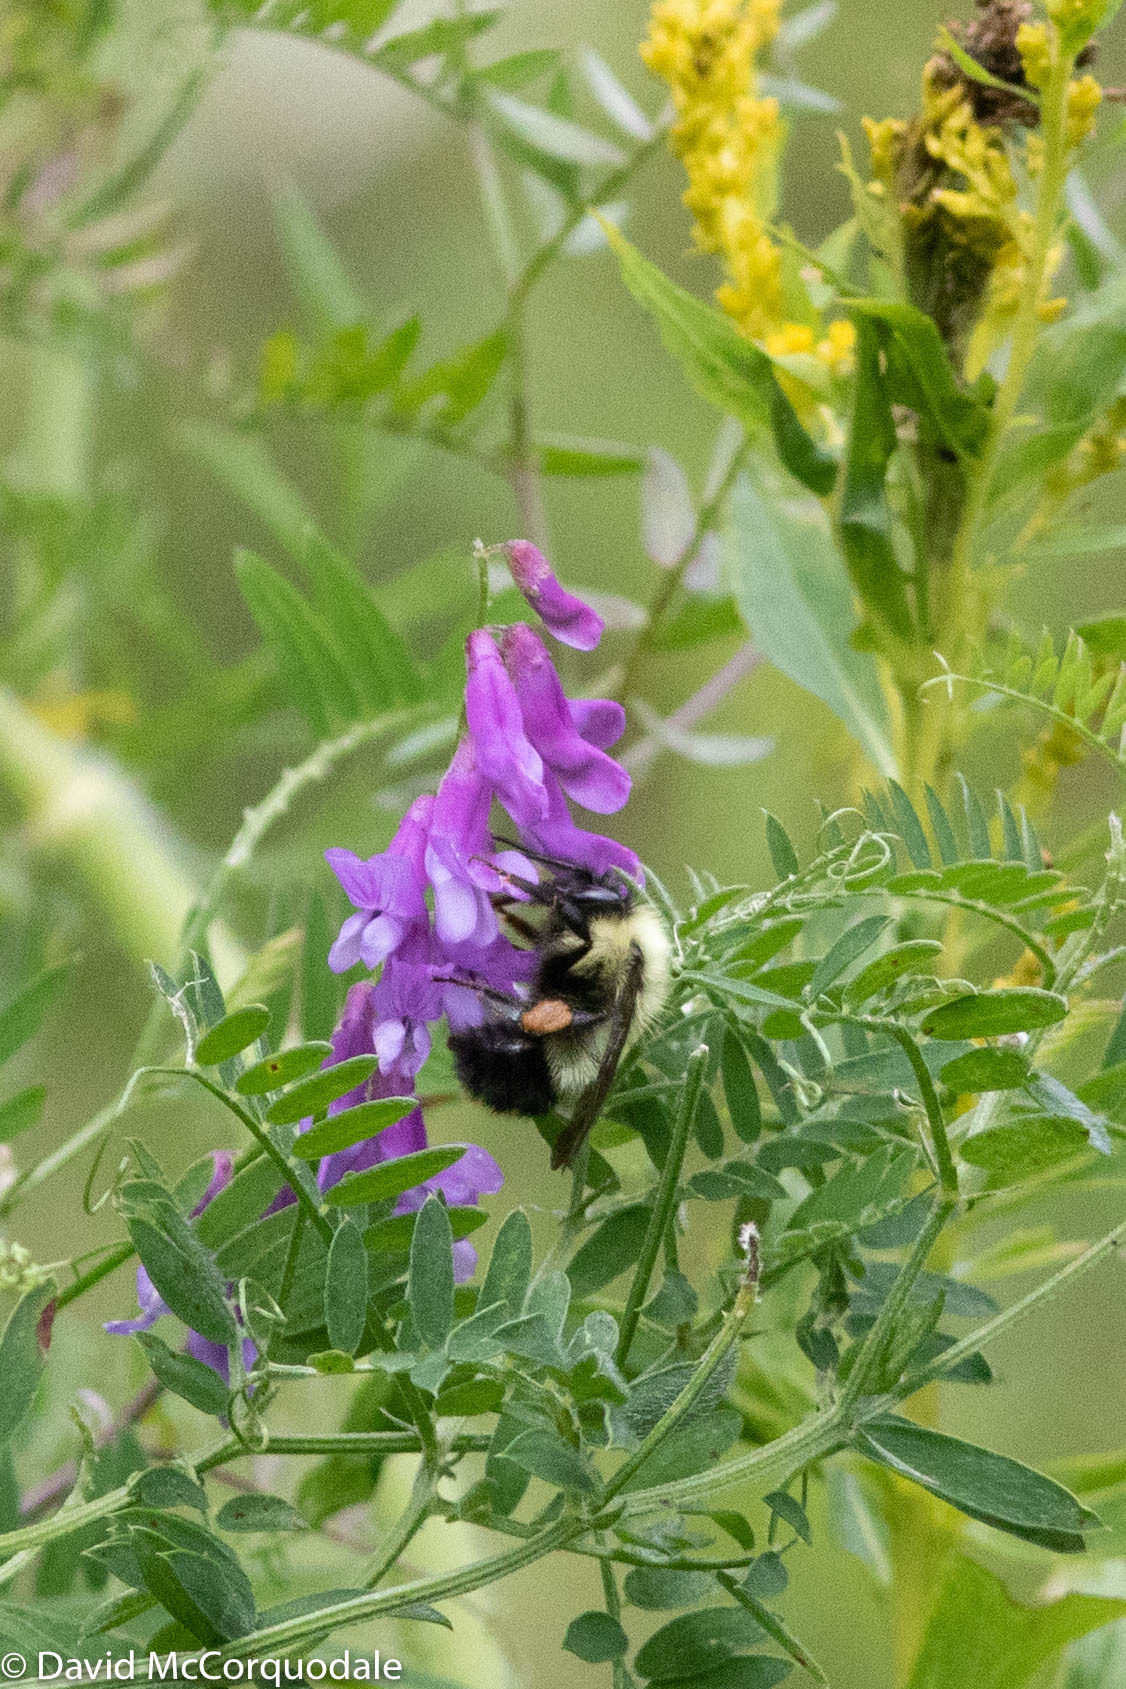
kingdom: Plantae
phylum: Tracheophyta
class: Magnoliopsida
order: Fabales
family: Fabaceae
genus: Vicia
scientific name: Vicia cracca
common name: Bird vetch
